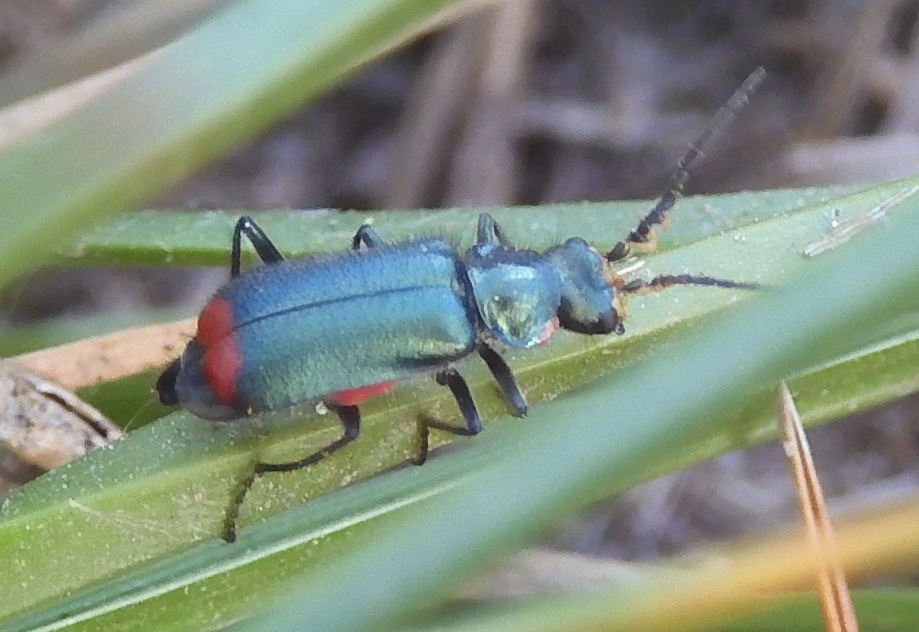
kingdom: Animalia
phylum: Arthropoda
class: Insecta
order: Coleoptera
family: Melyridae
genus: Malachius
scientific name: Malachius bipustulatus
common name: Malachite beetle
